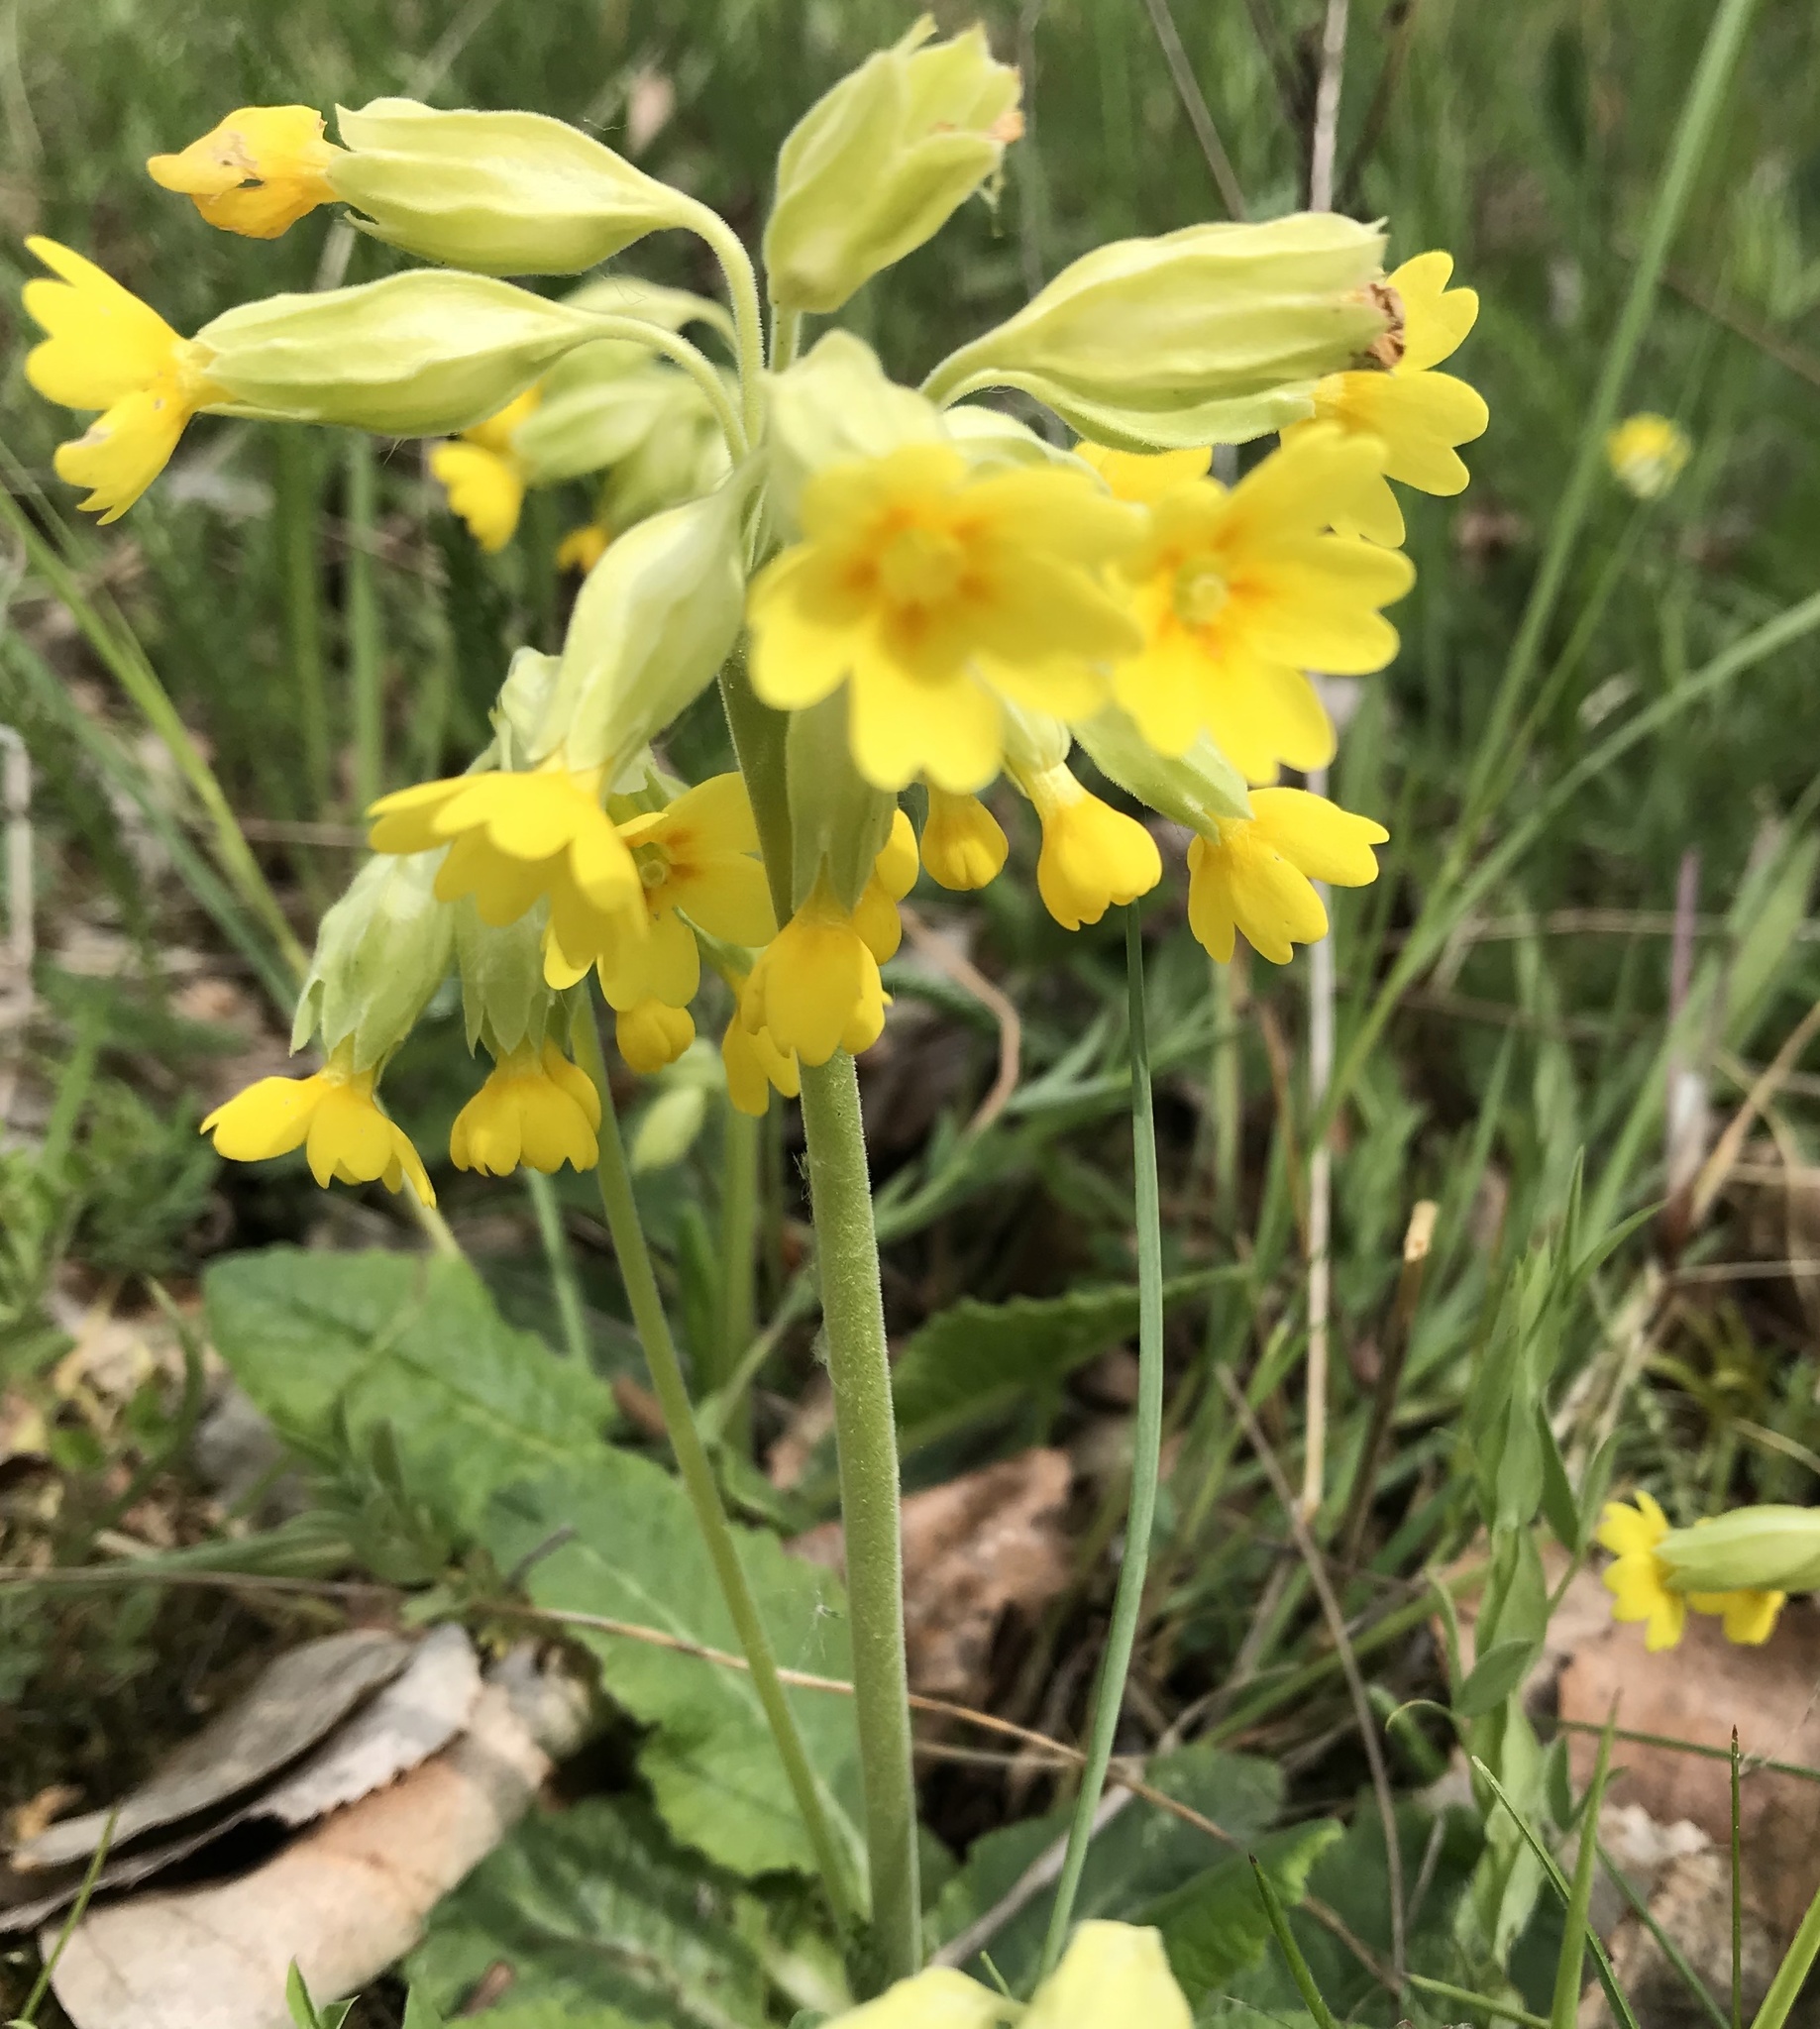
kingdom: Plantae
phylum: Tracheophyta
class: Magnoliopsida
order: Ericales
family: Primulaceae
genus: Primula
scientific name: Primula veris
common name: Cowslip
